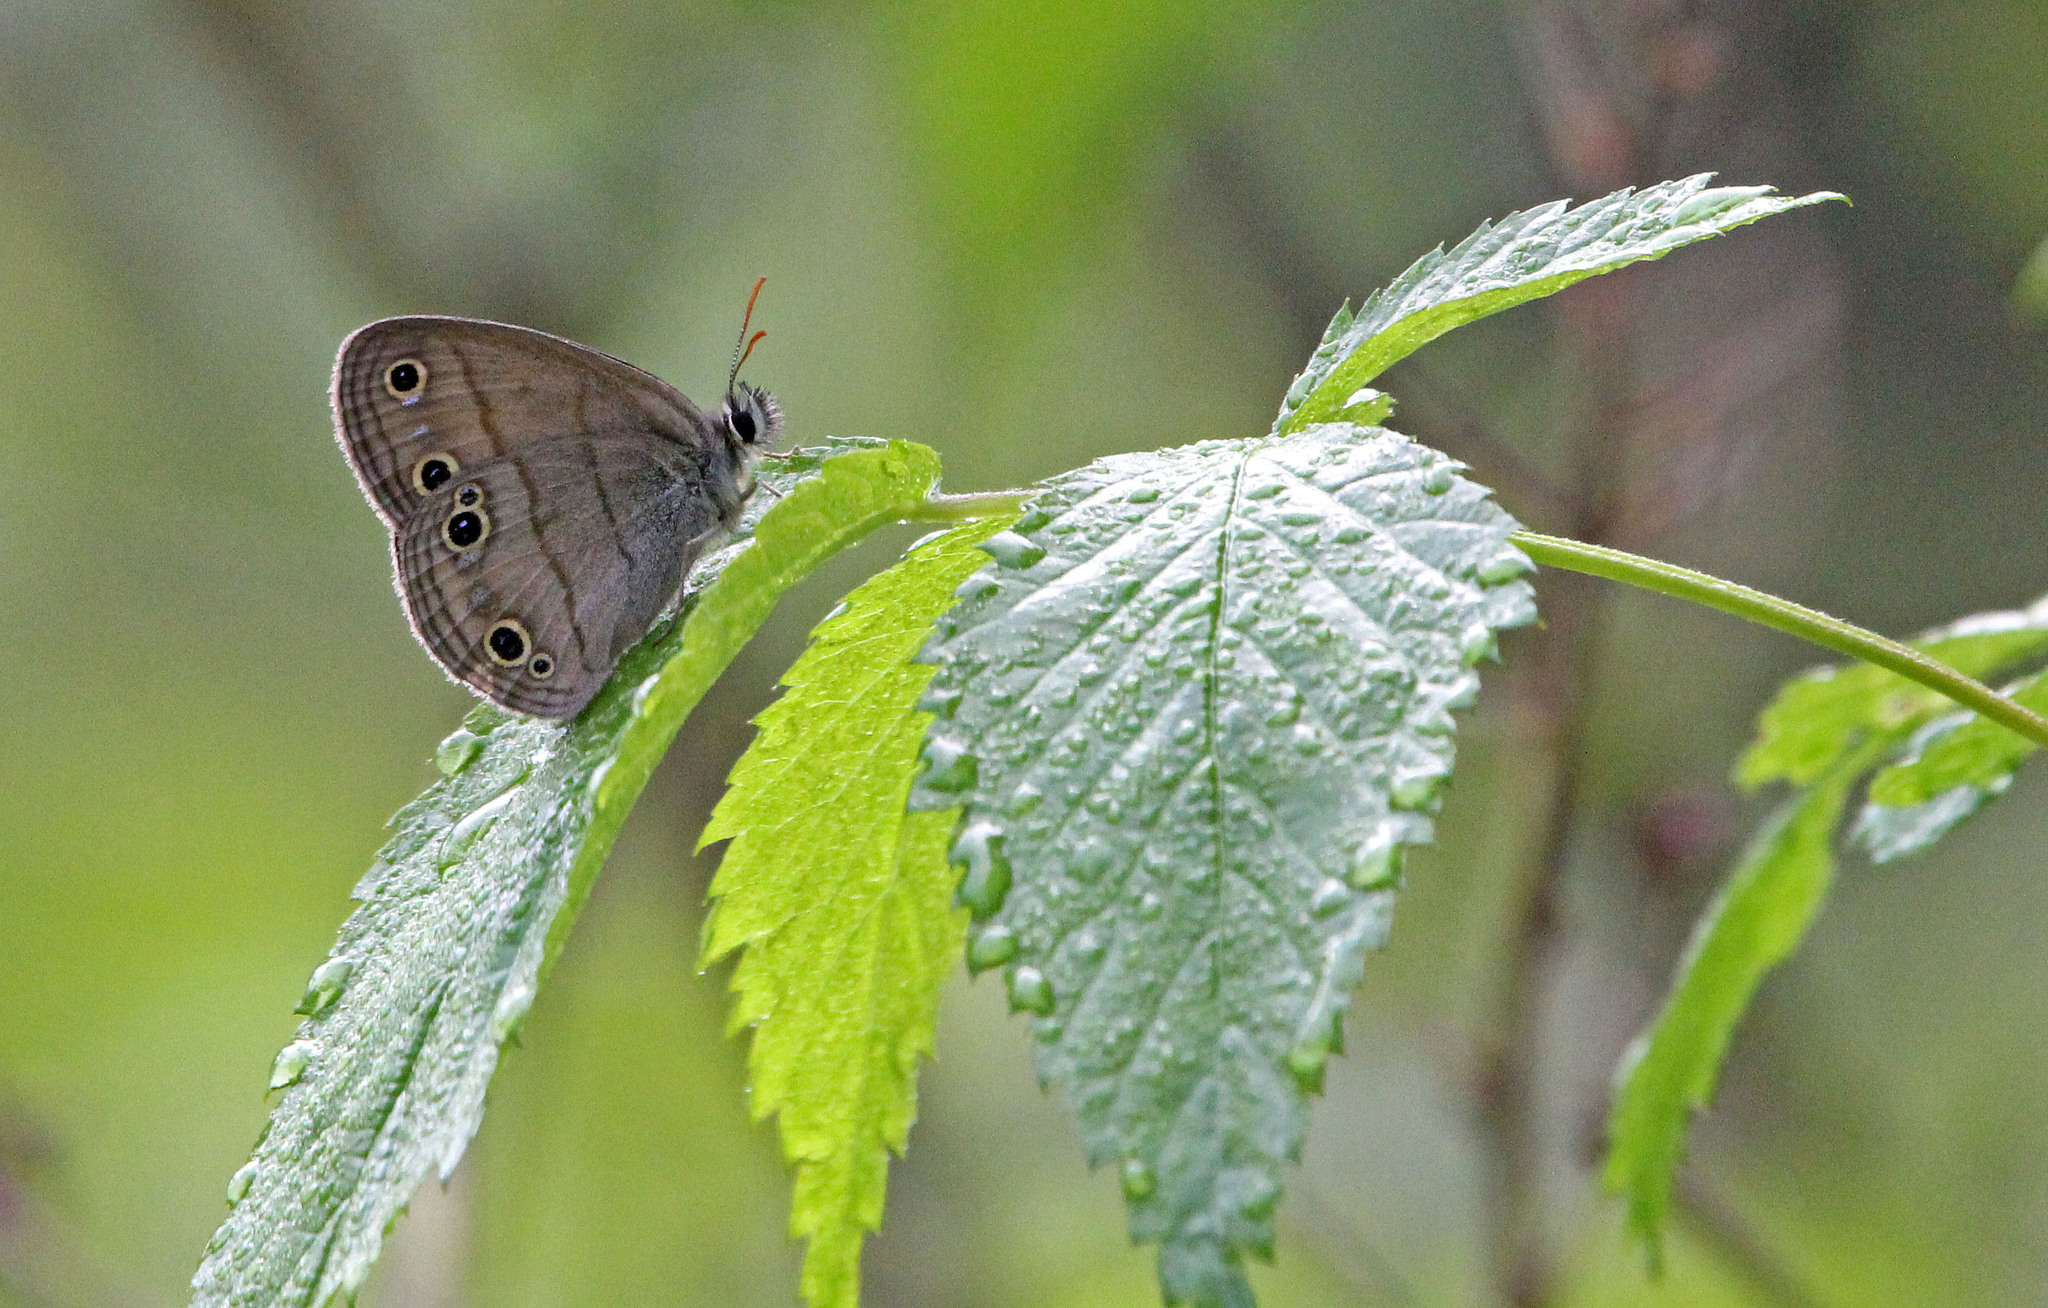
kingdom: Animalia
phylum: Arthropoda
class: Insecta
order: Lepidoptera
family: Nymphalidae
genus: Euptychia
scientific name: Euptychia cymela
